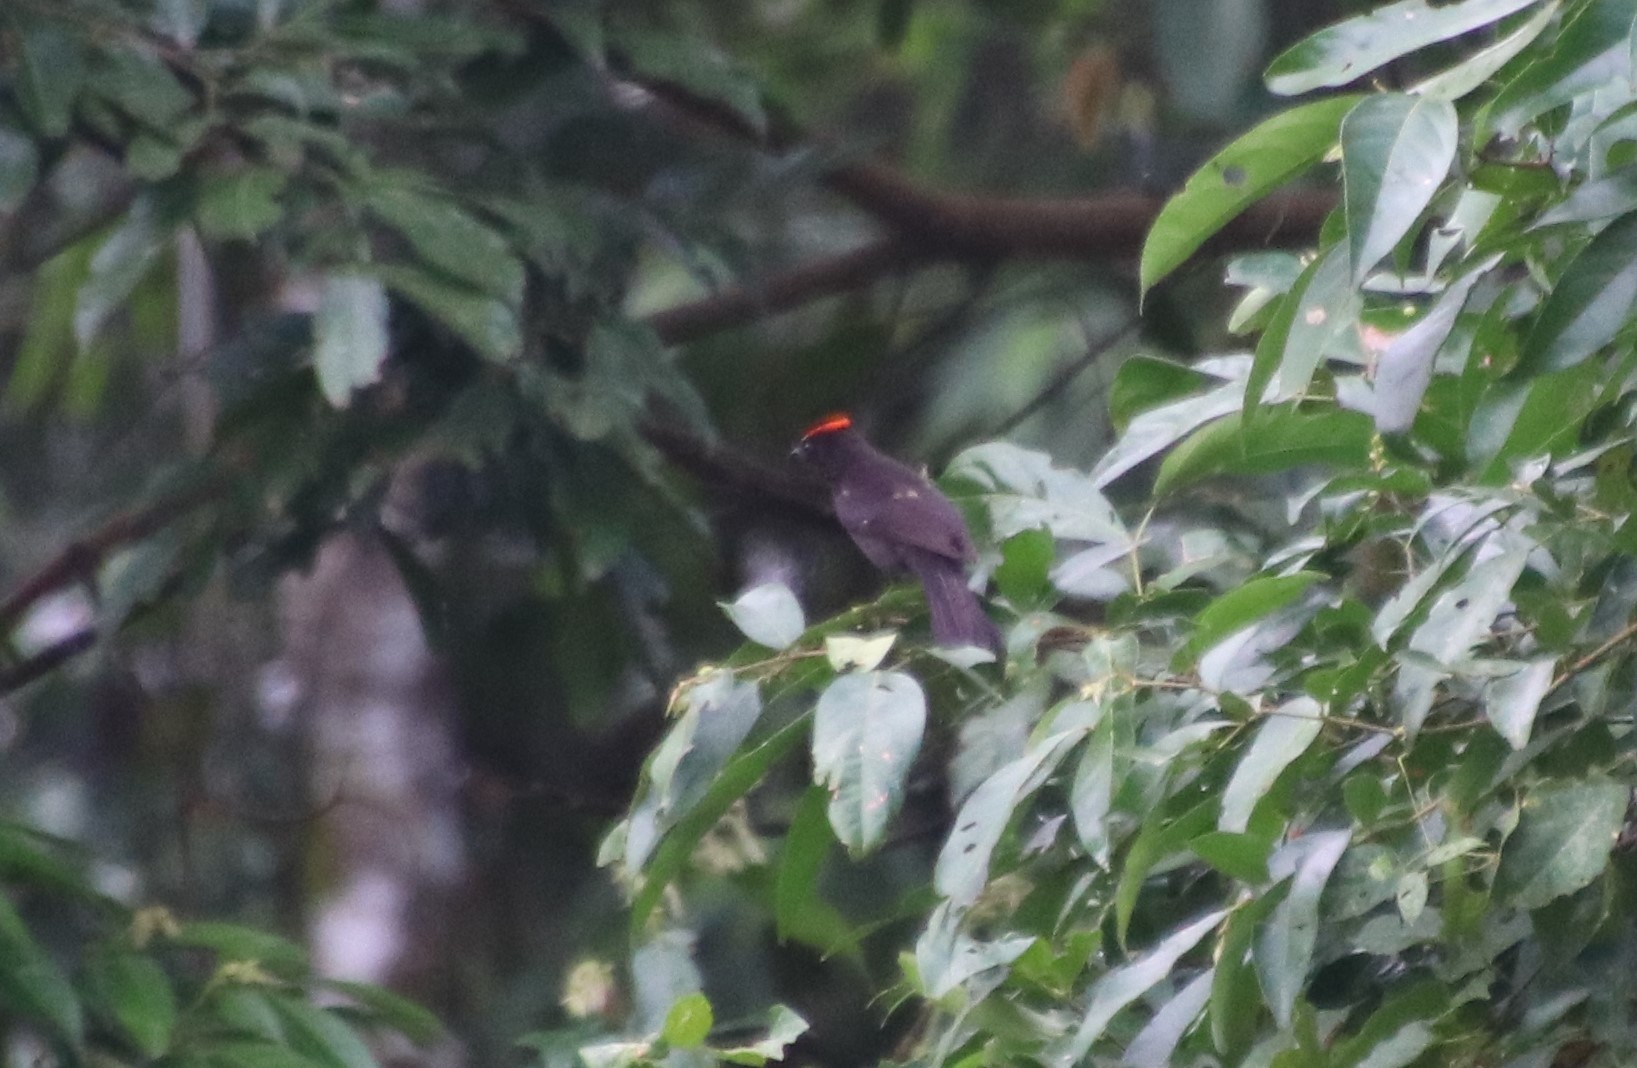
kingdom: Animalia
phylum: Chordata
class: Aves
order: Passeriformes
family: Thraupidae
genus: Loriotus
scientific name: Loriotus cristatus
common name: Flame-crested tanager
